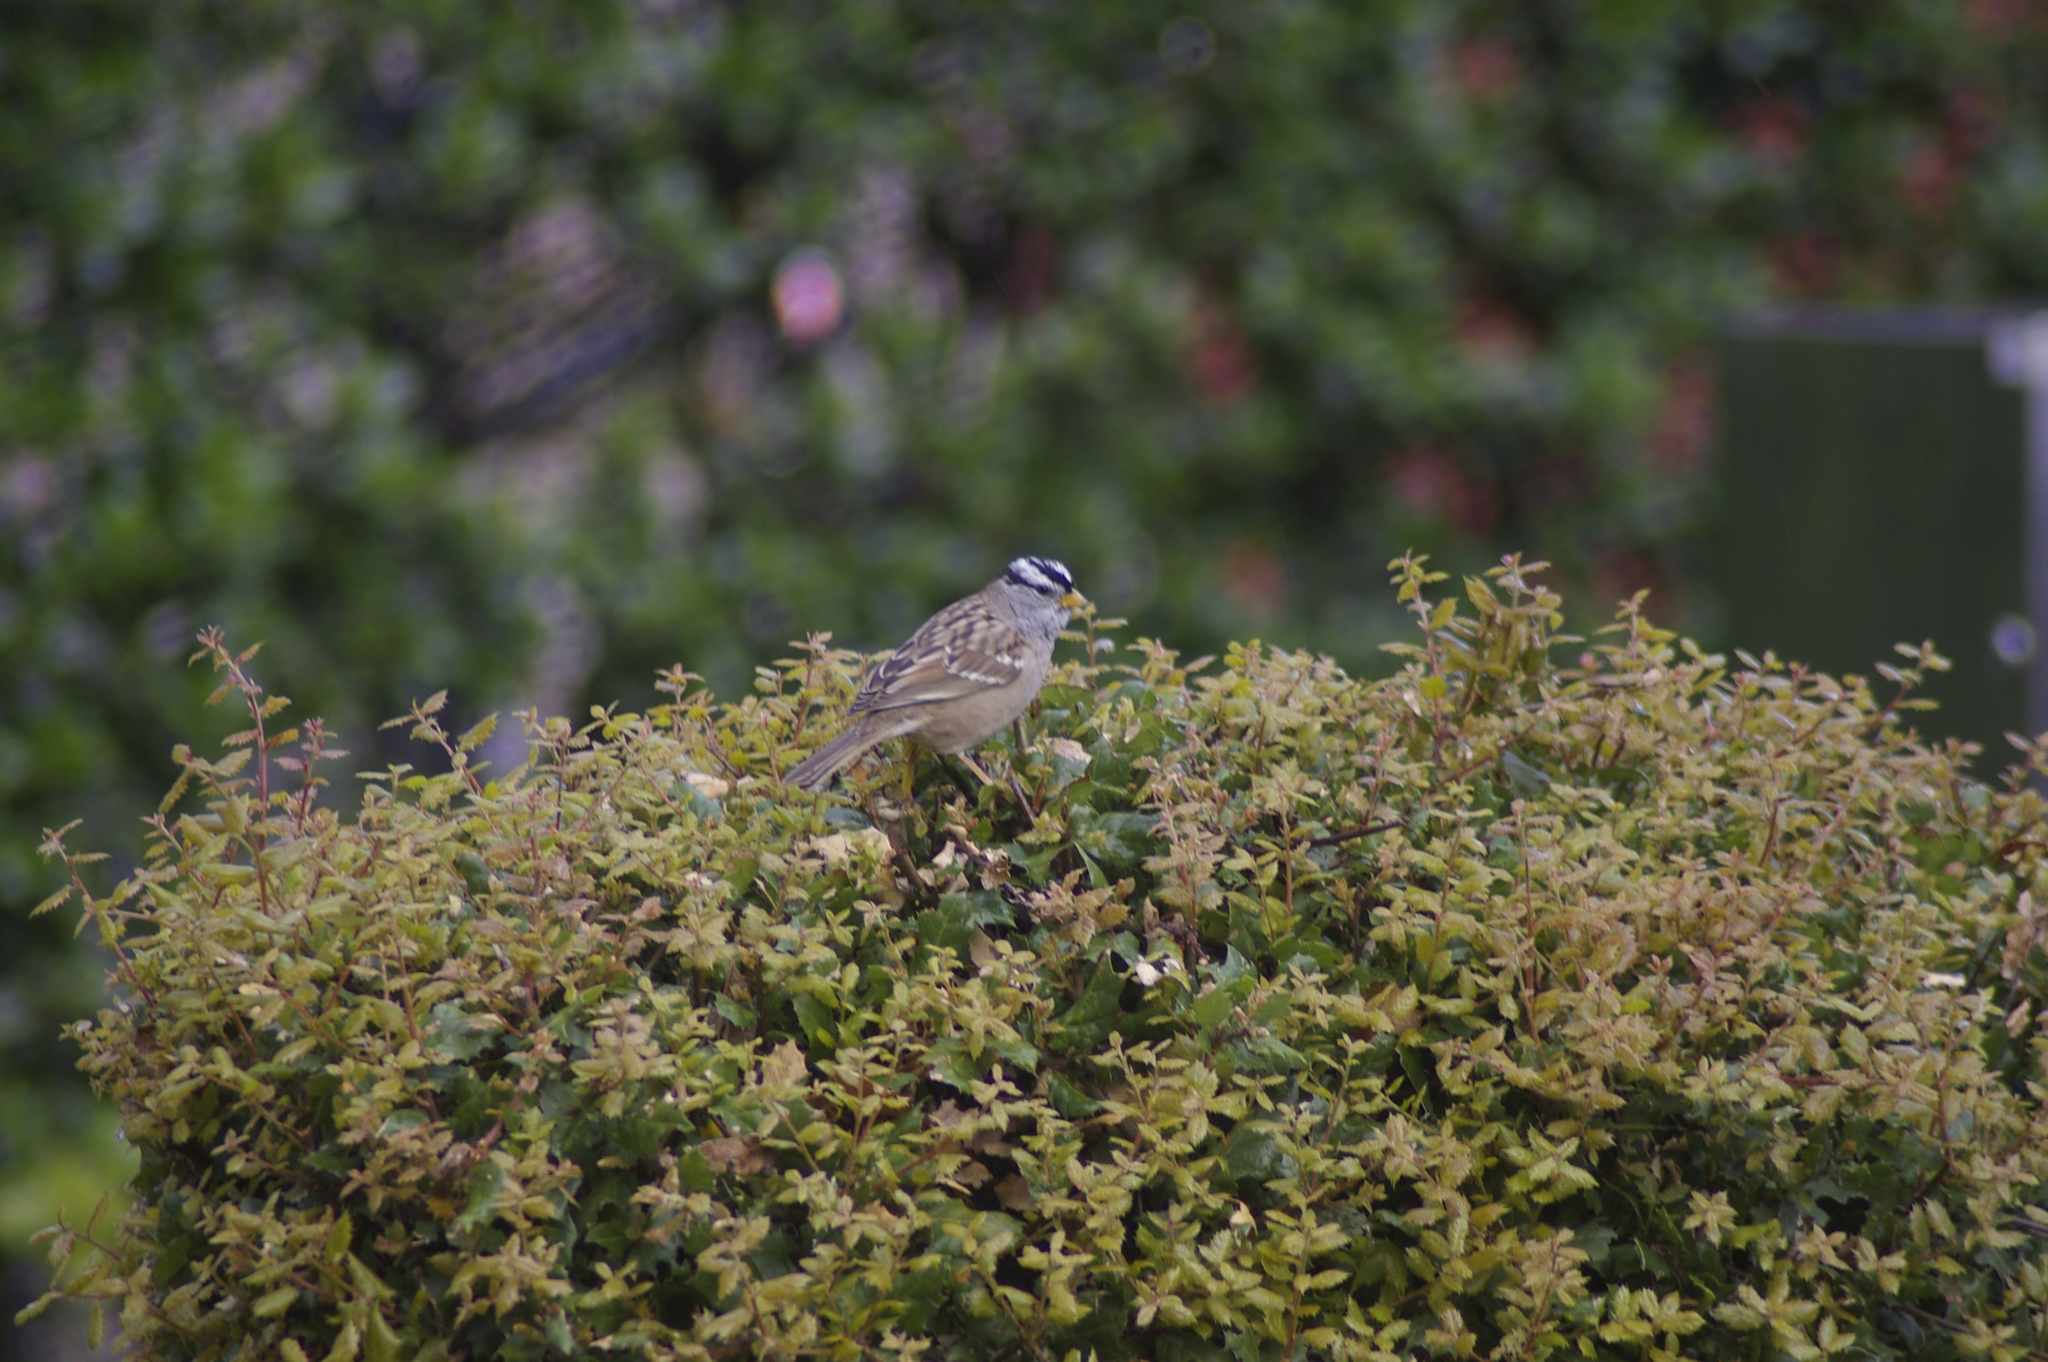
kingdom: Animalia
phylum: Chordata
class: Aves
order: Passeriformes
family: Passerellidae
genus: Zonotrichia
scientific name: Zonotrichia leucophrys
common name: White-crowned sparrow
